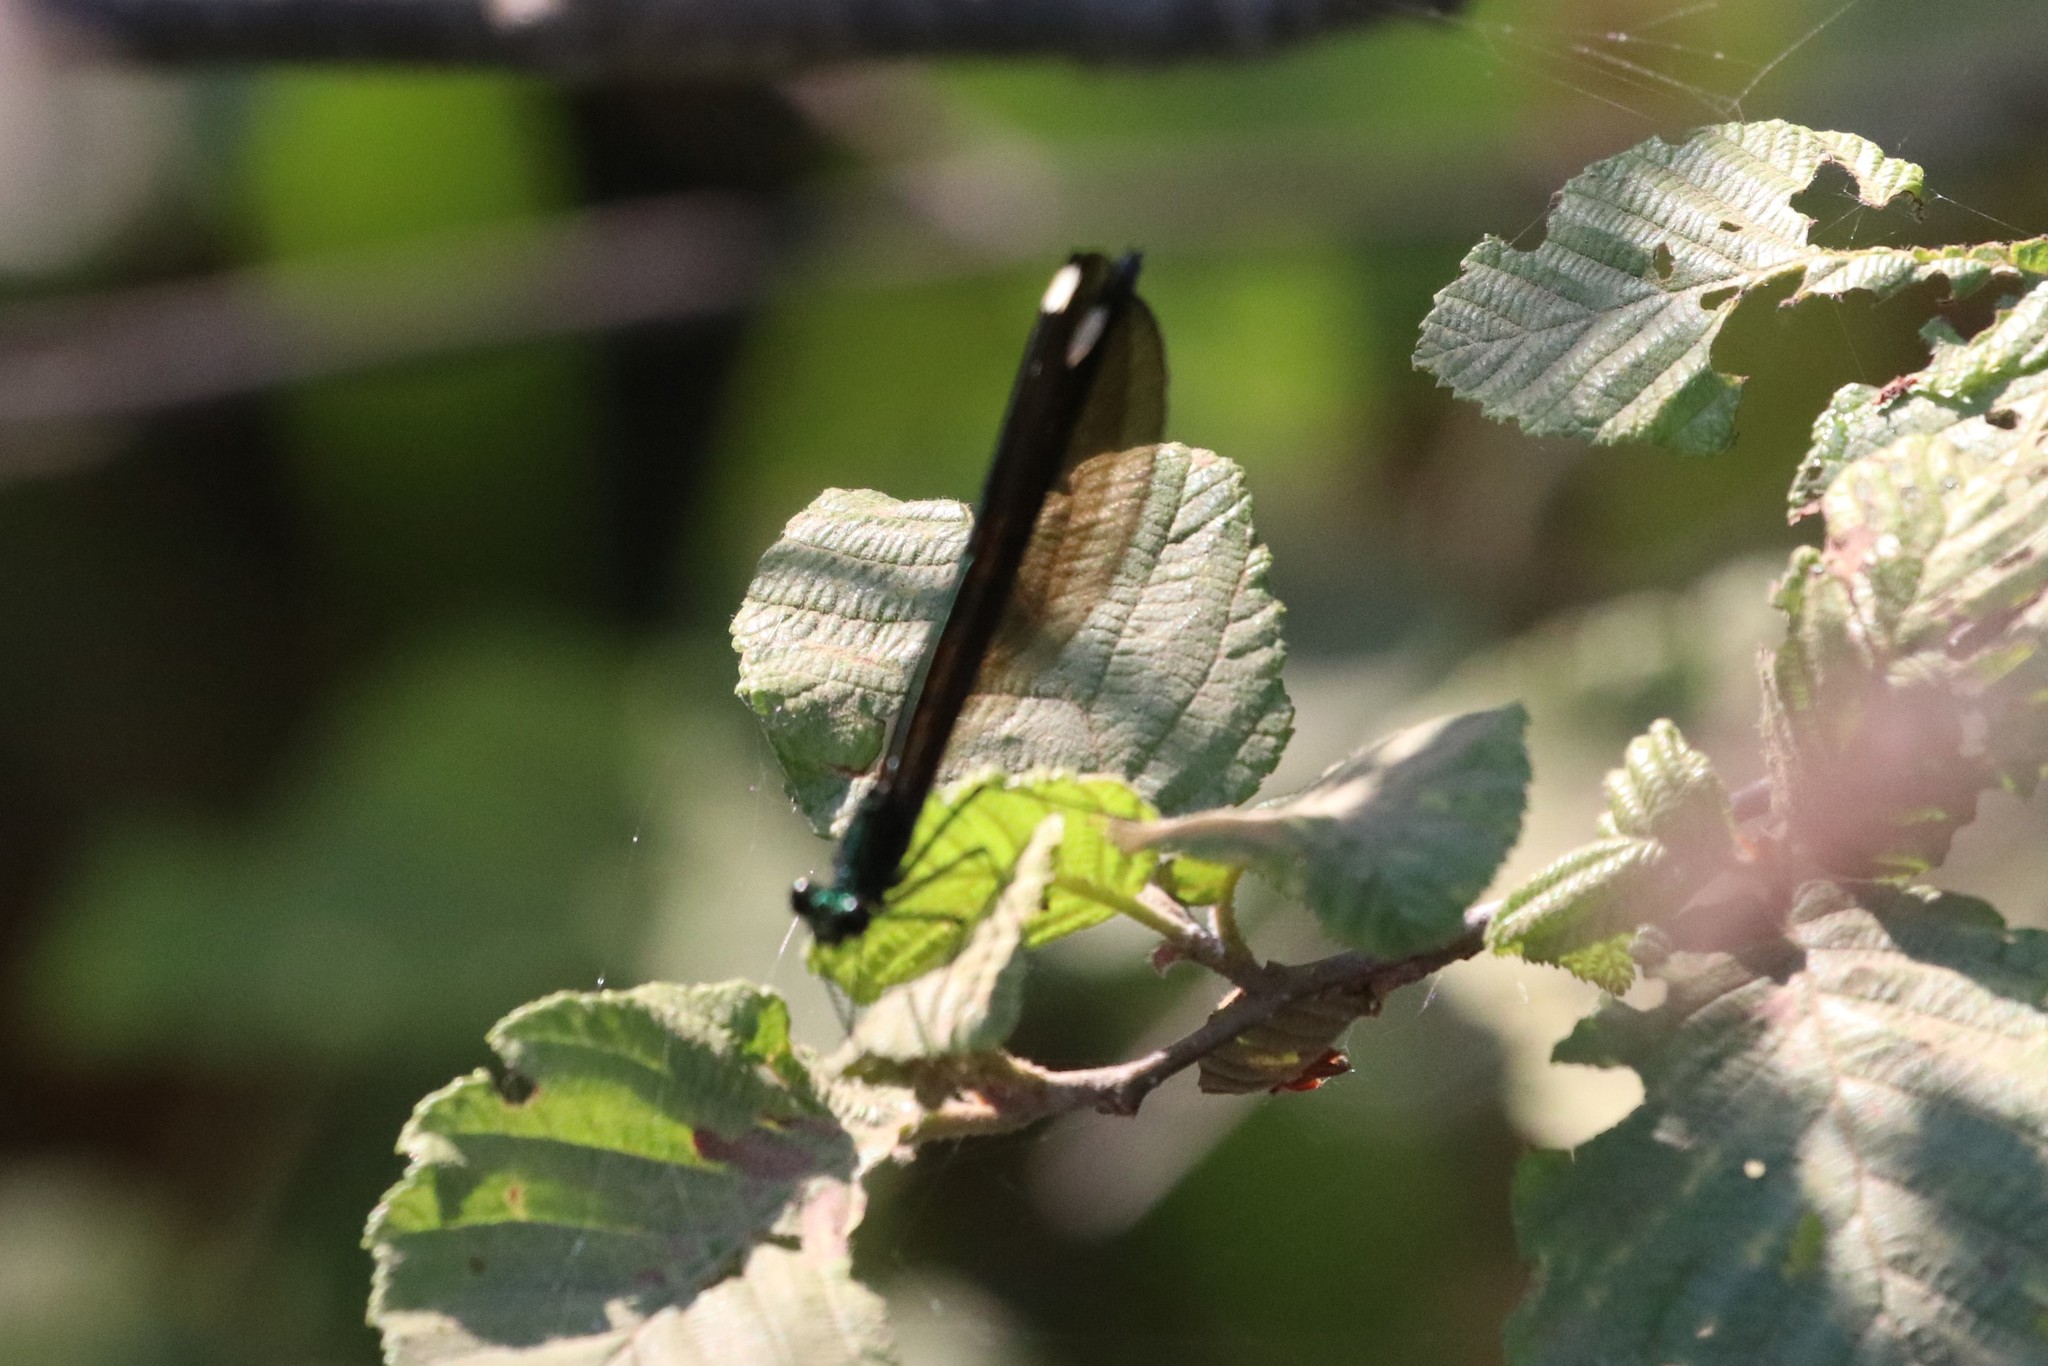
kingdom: Animalia
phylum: Arthropoda
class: Insecta
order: Odonata
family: Calopterygidae
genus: Calopteryx
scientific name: Calopteryx maculata
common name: Ebony jewelwing
